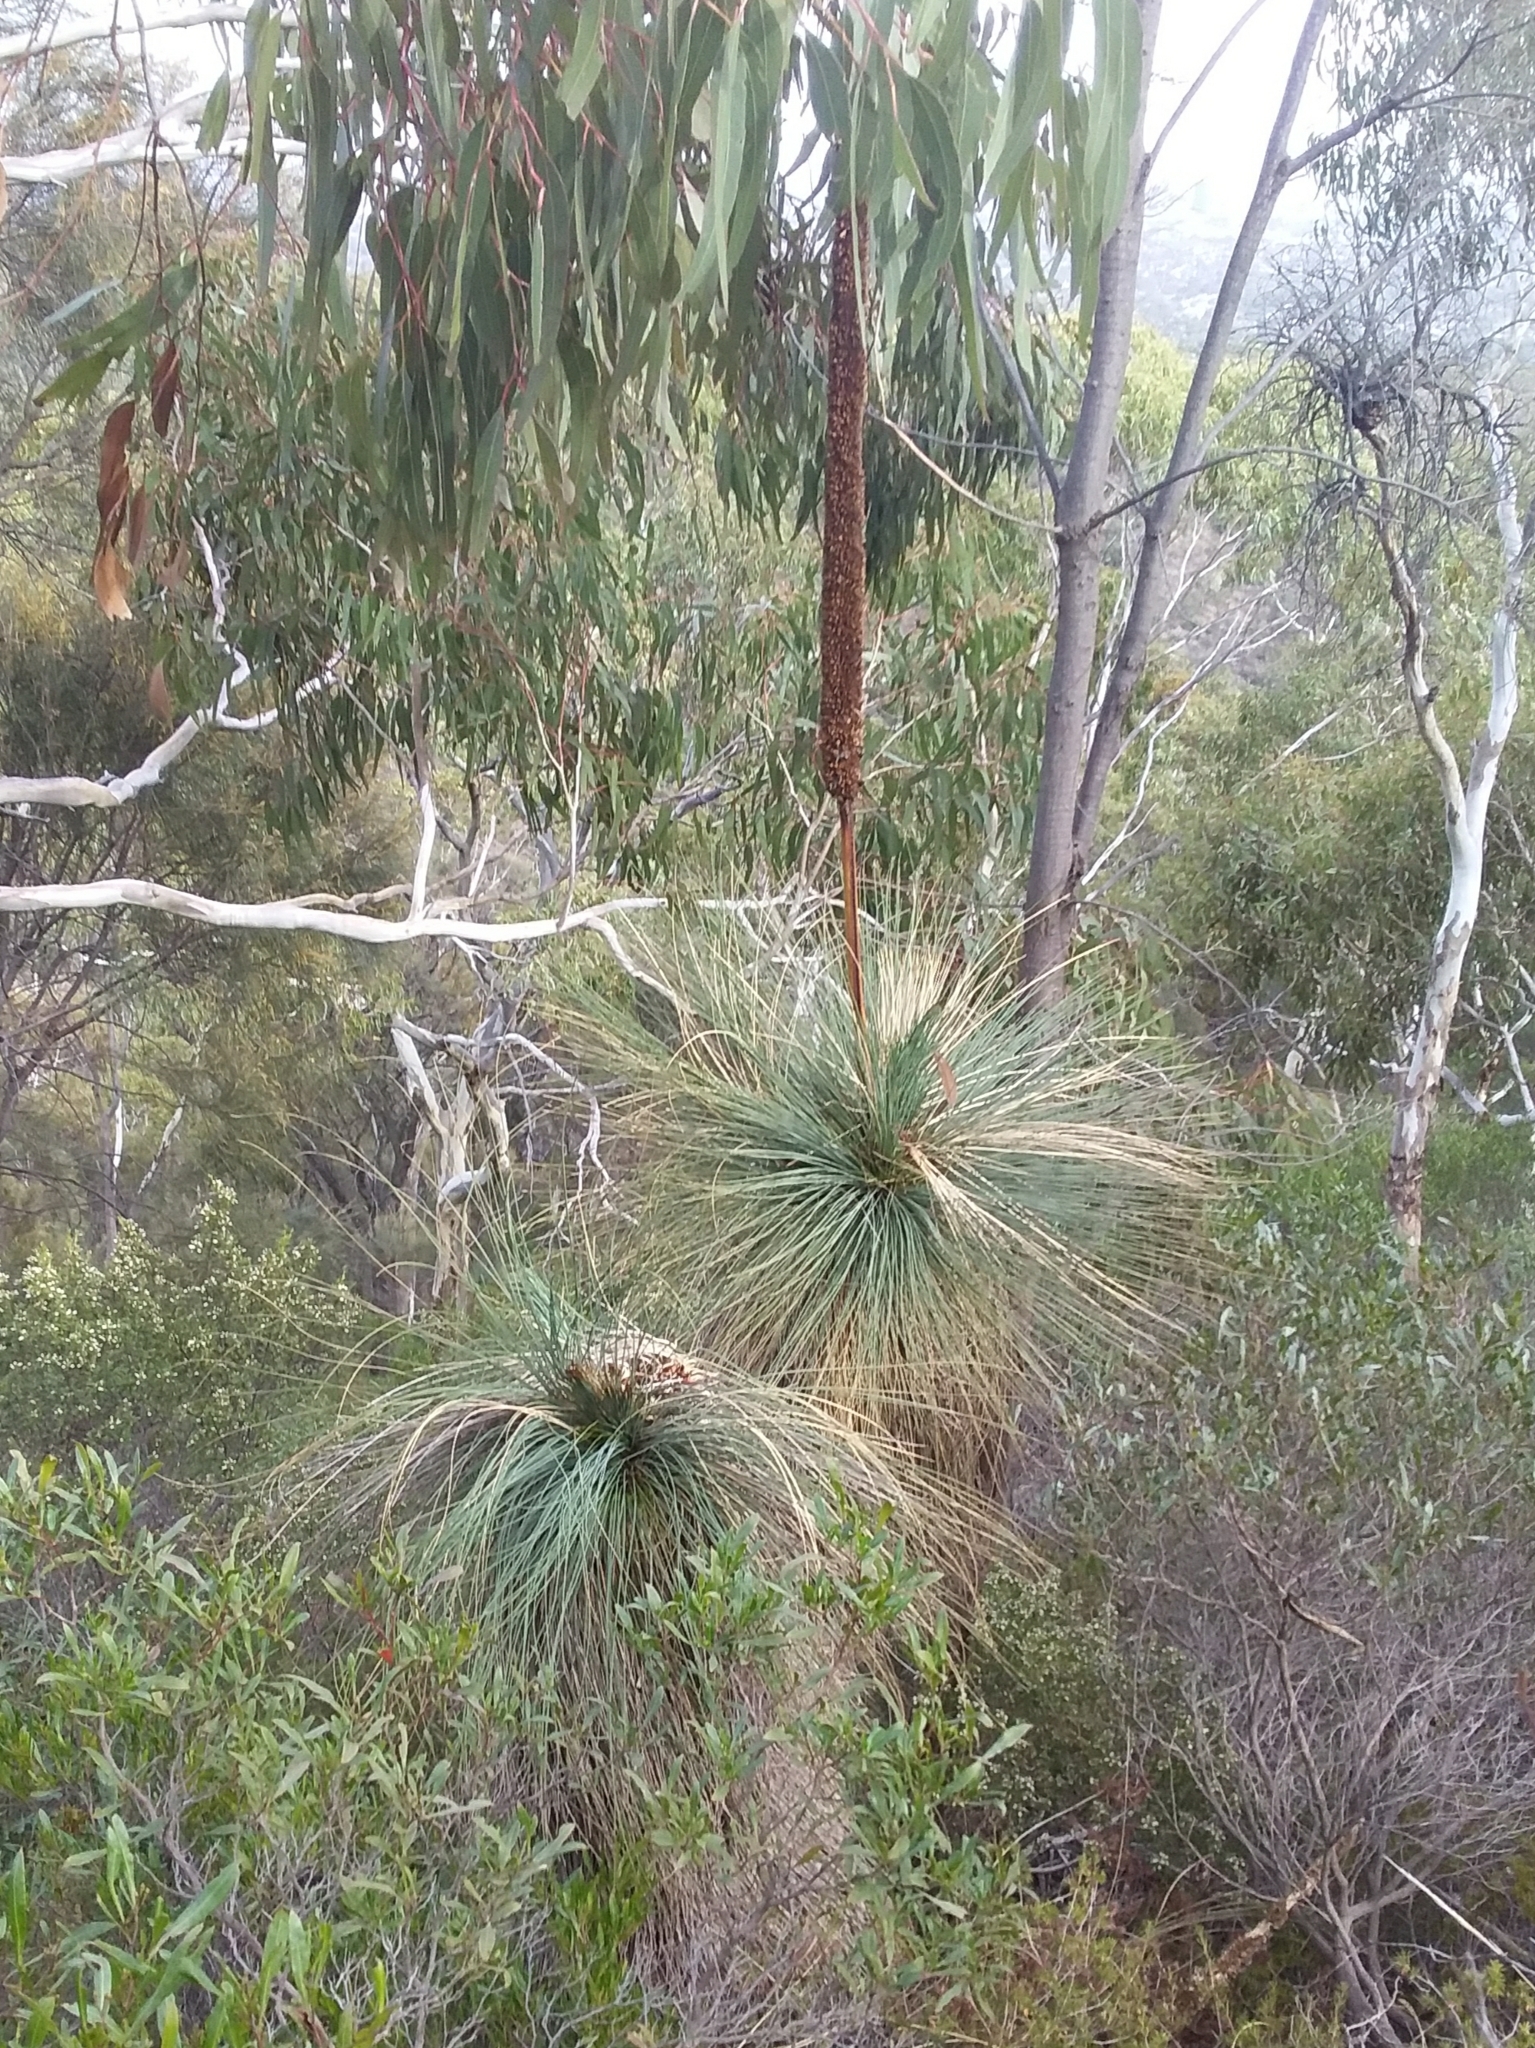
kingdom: Plantae
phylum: Tracheophyta
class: Liliopsida
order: Asparagales
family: Asphodelaceae
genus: Xanthorrhoea
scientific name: Xanthorrhoea quadrangulata
